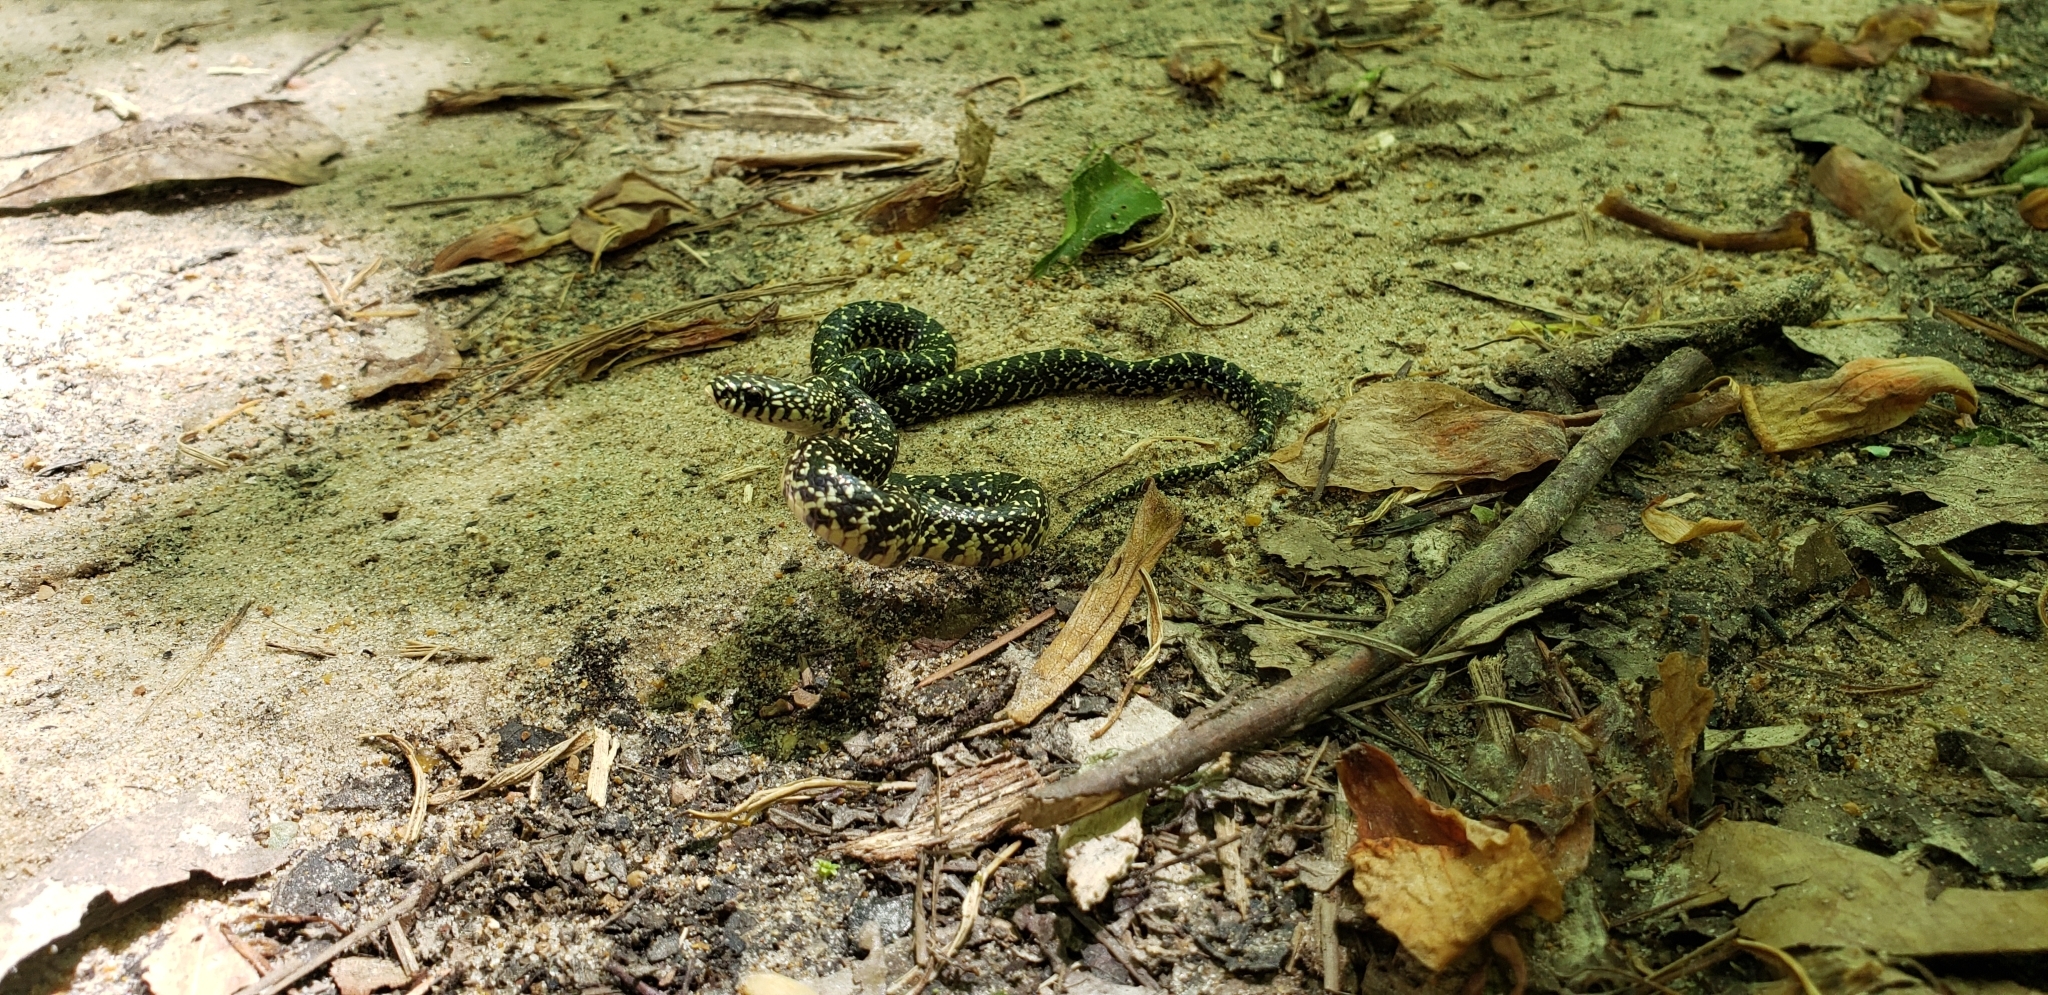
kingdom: Animalia
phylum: Chordata
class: Squamata
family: Colubridae
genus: Lampropeltis
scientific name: Lampropeltis holbrooki
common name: Speckled kingsnake
